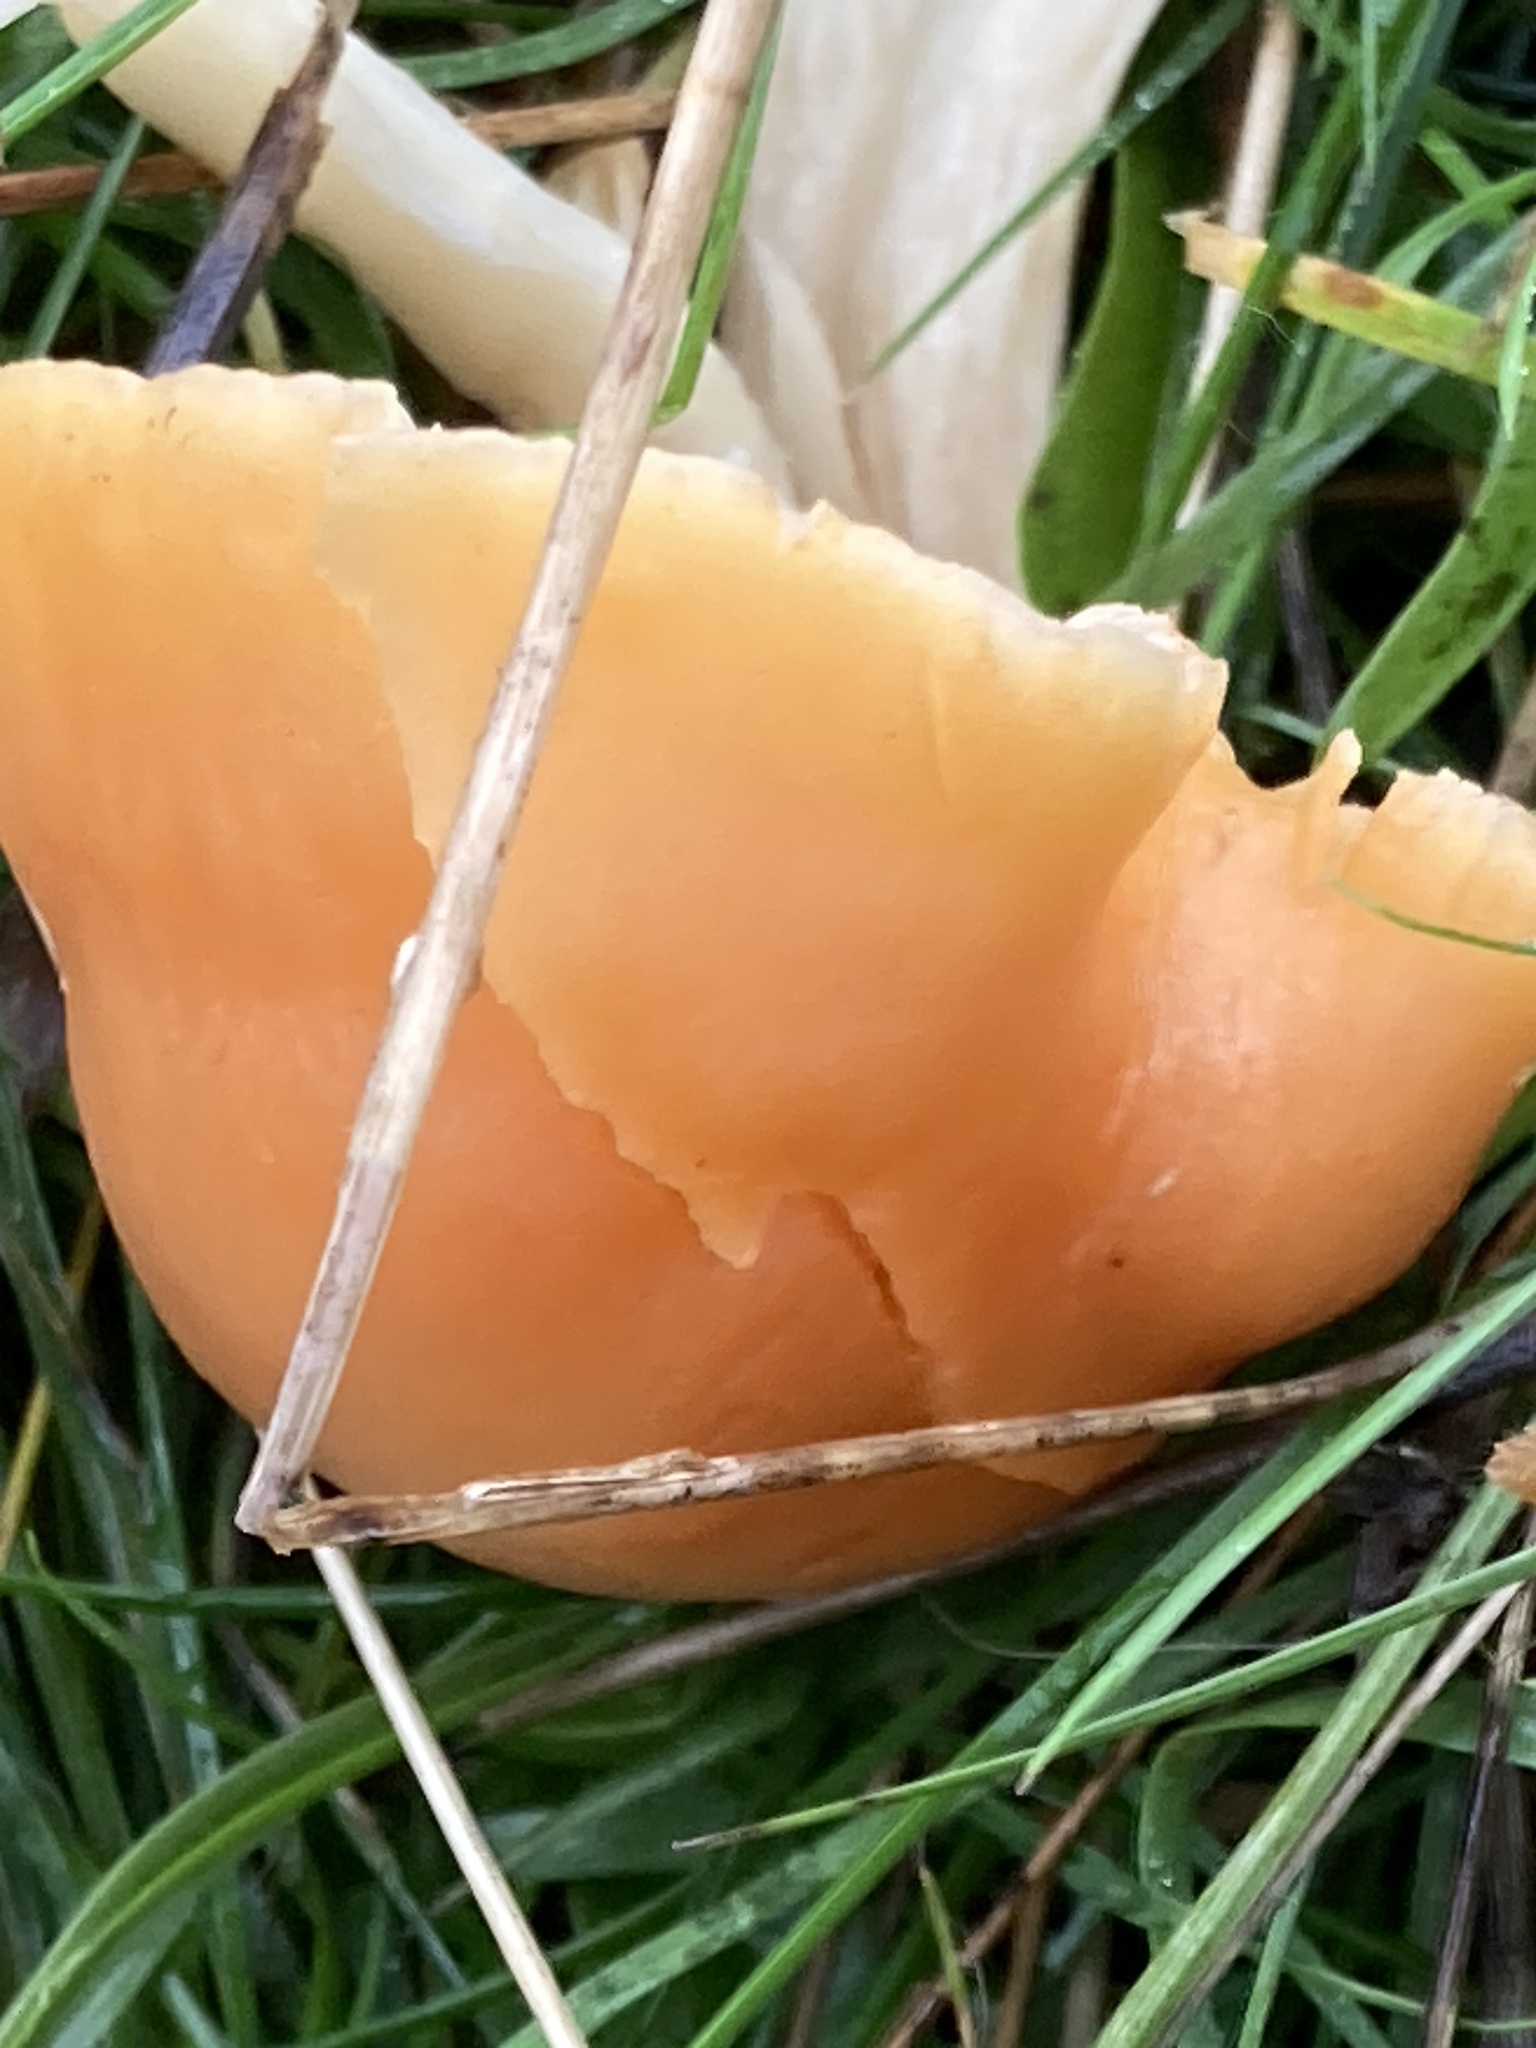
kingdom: Fungi
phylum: Basidiomycota
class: Agaricomycetes
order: Agaricales
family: Hygrophoraceae
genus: Cuphophyllus
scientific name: Cuphophyllus pratensis
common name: Meadow waxcap
